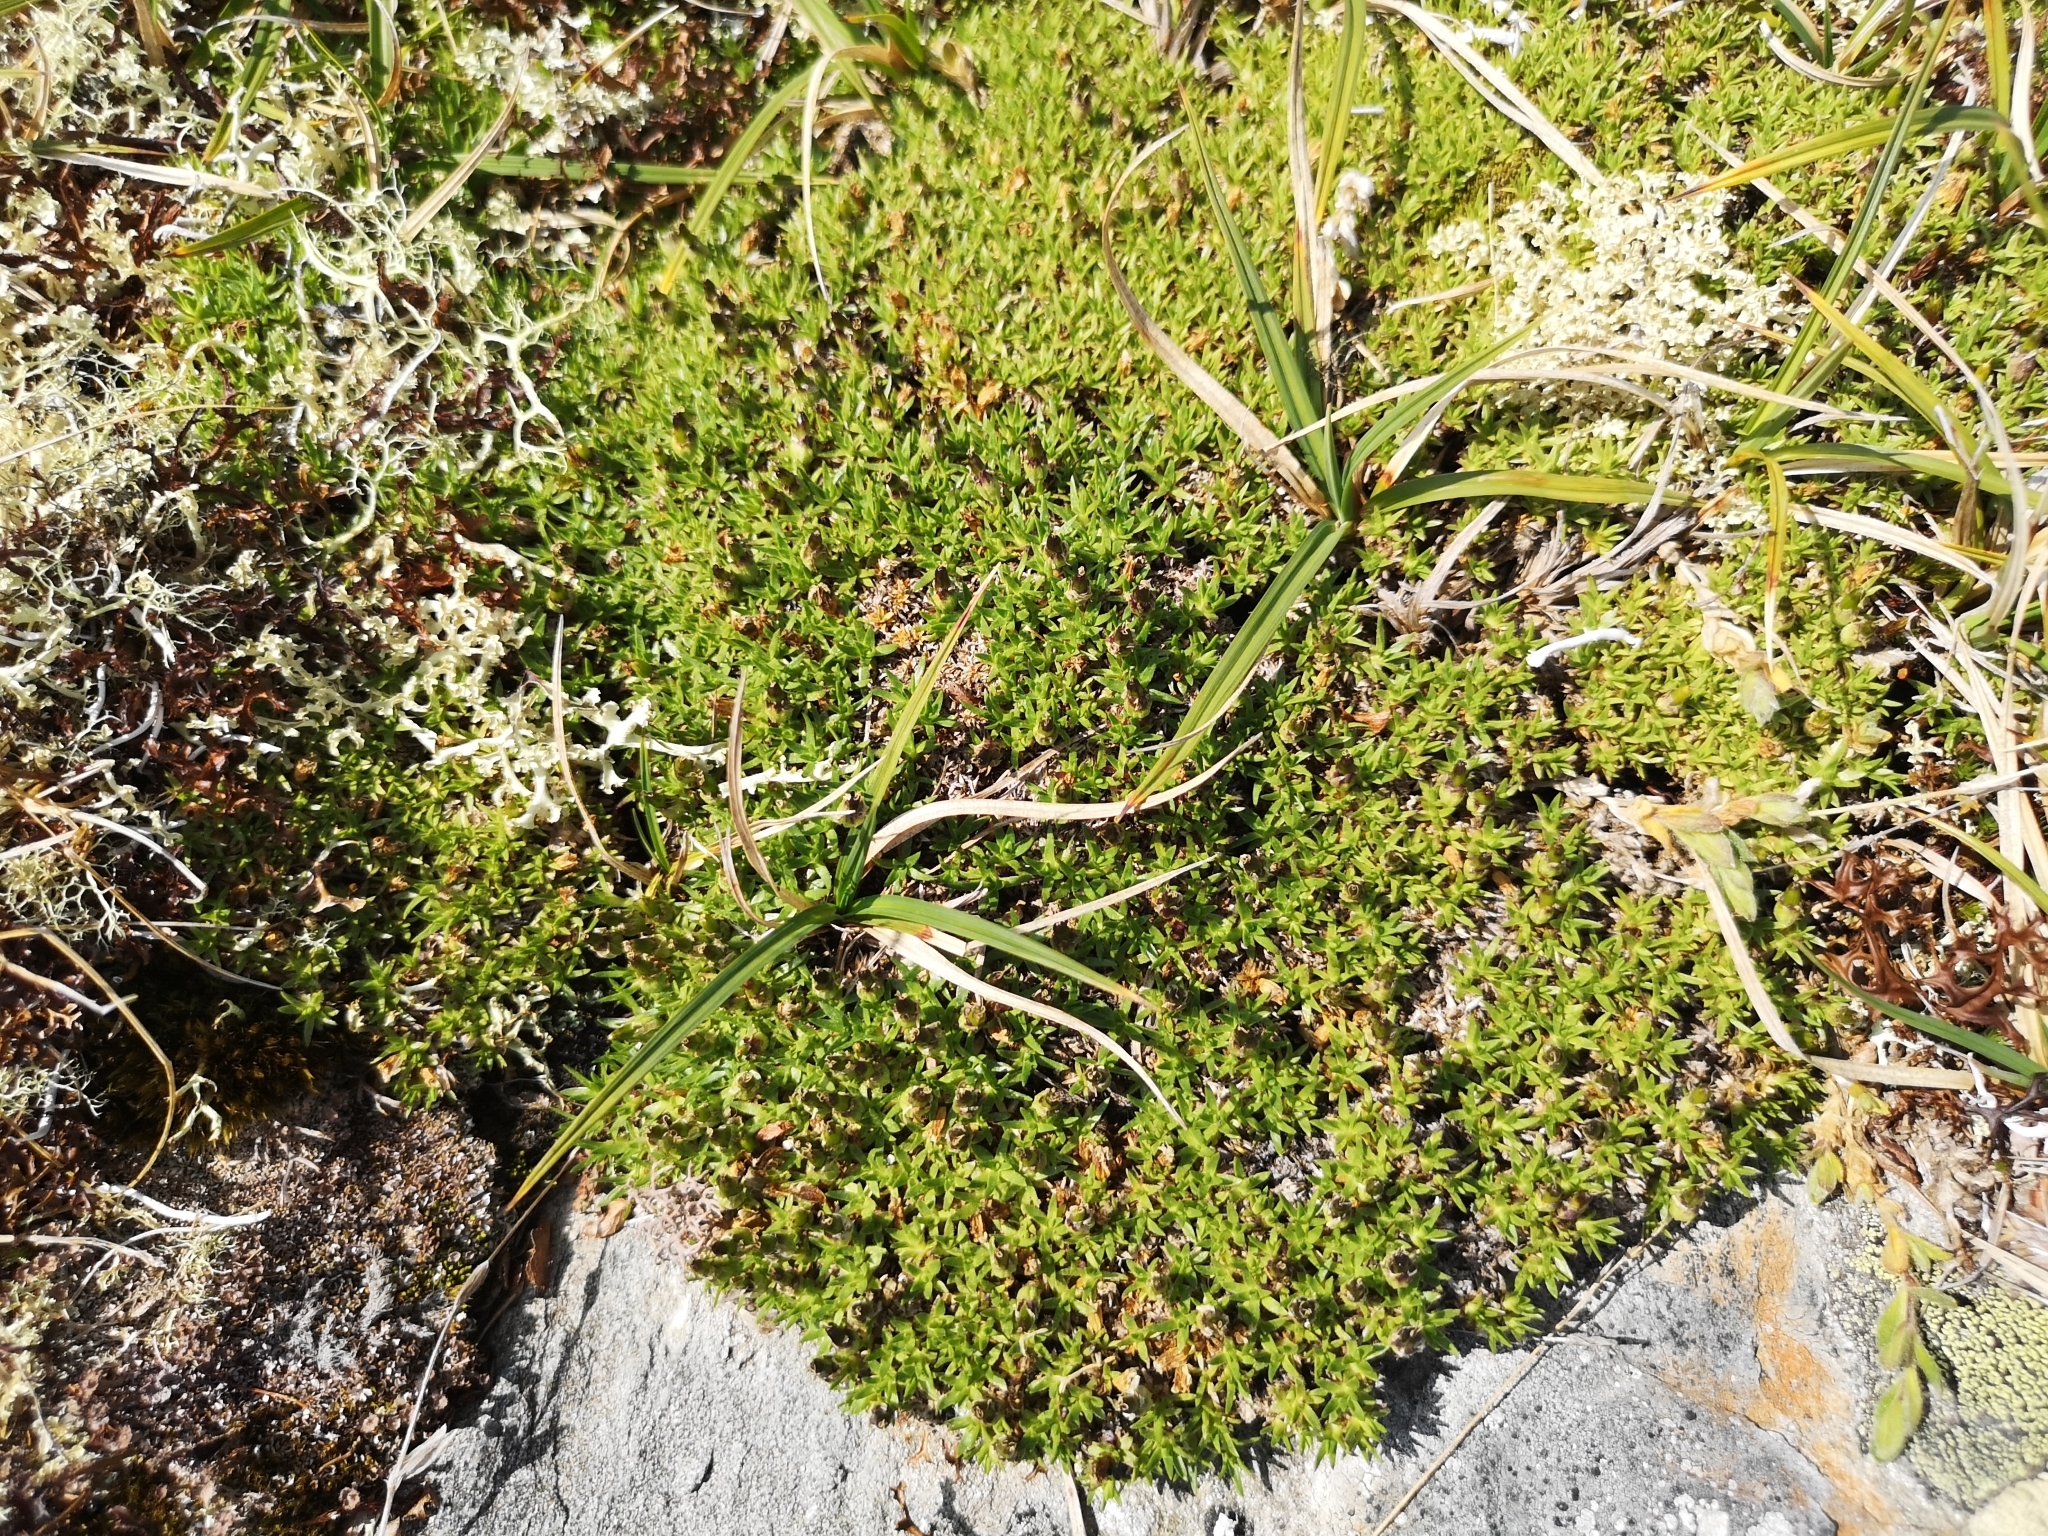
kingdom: Plantae
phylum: Tracheophyta
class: Magnoliopsida
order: Caryophyllales
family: Caryophyllaceae
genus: Silene
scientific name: Silene acaulis
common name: Moss campion
